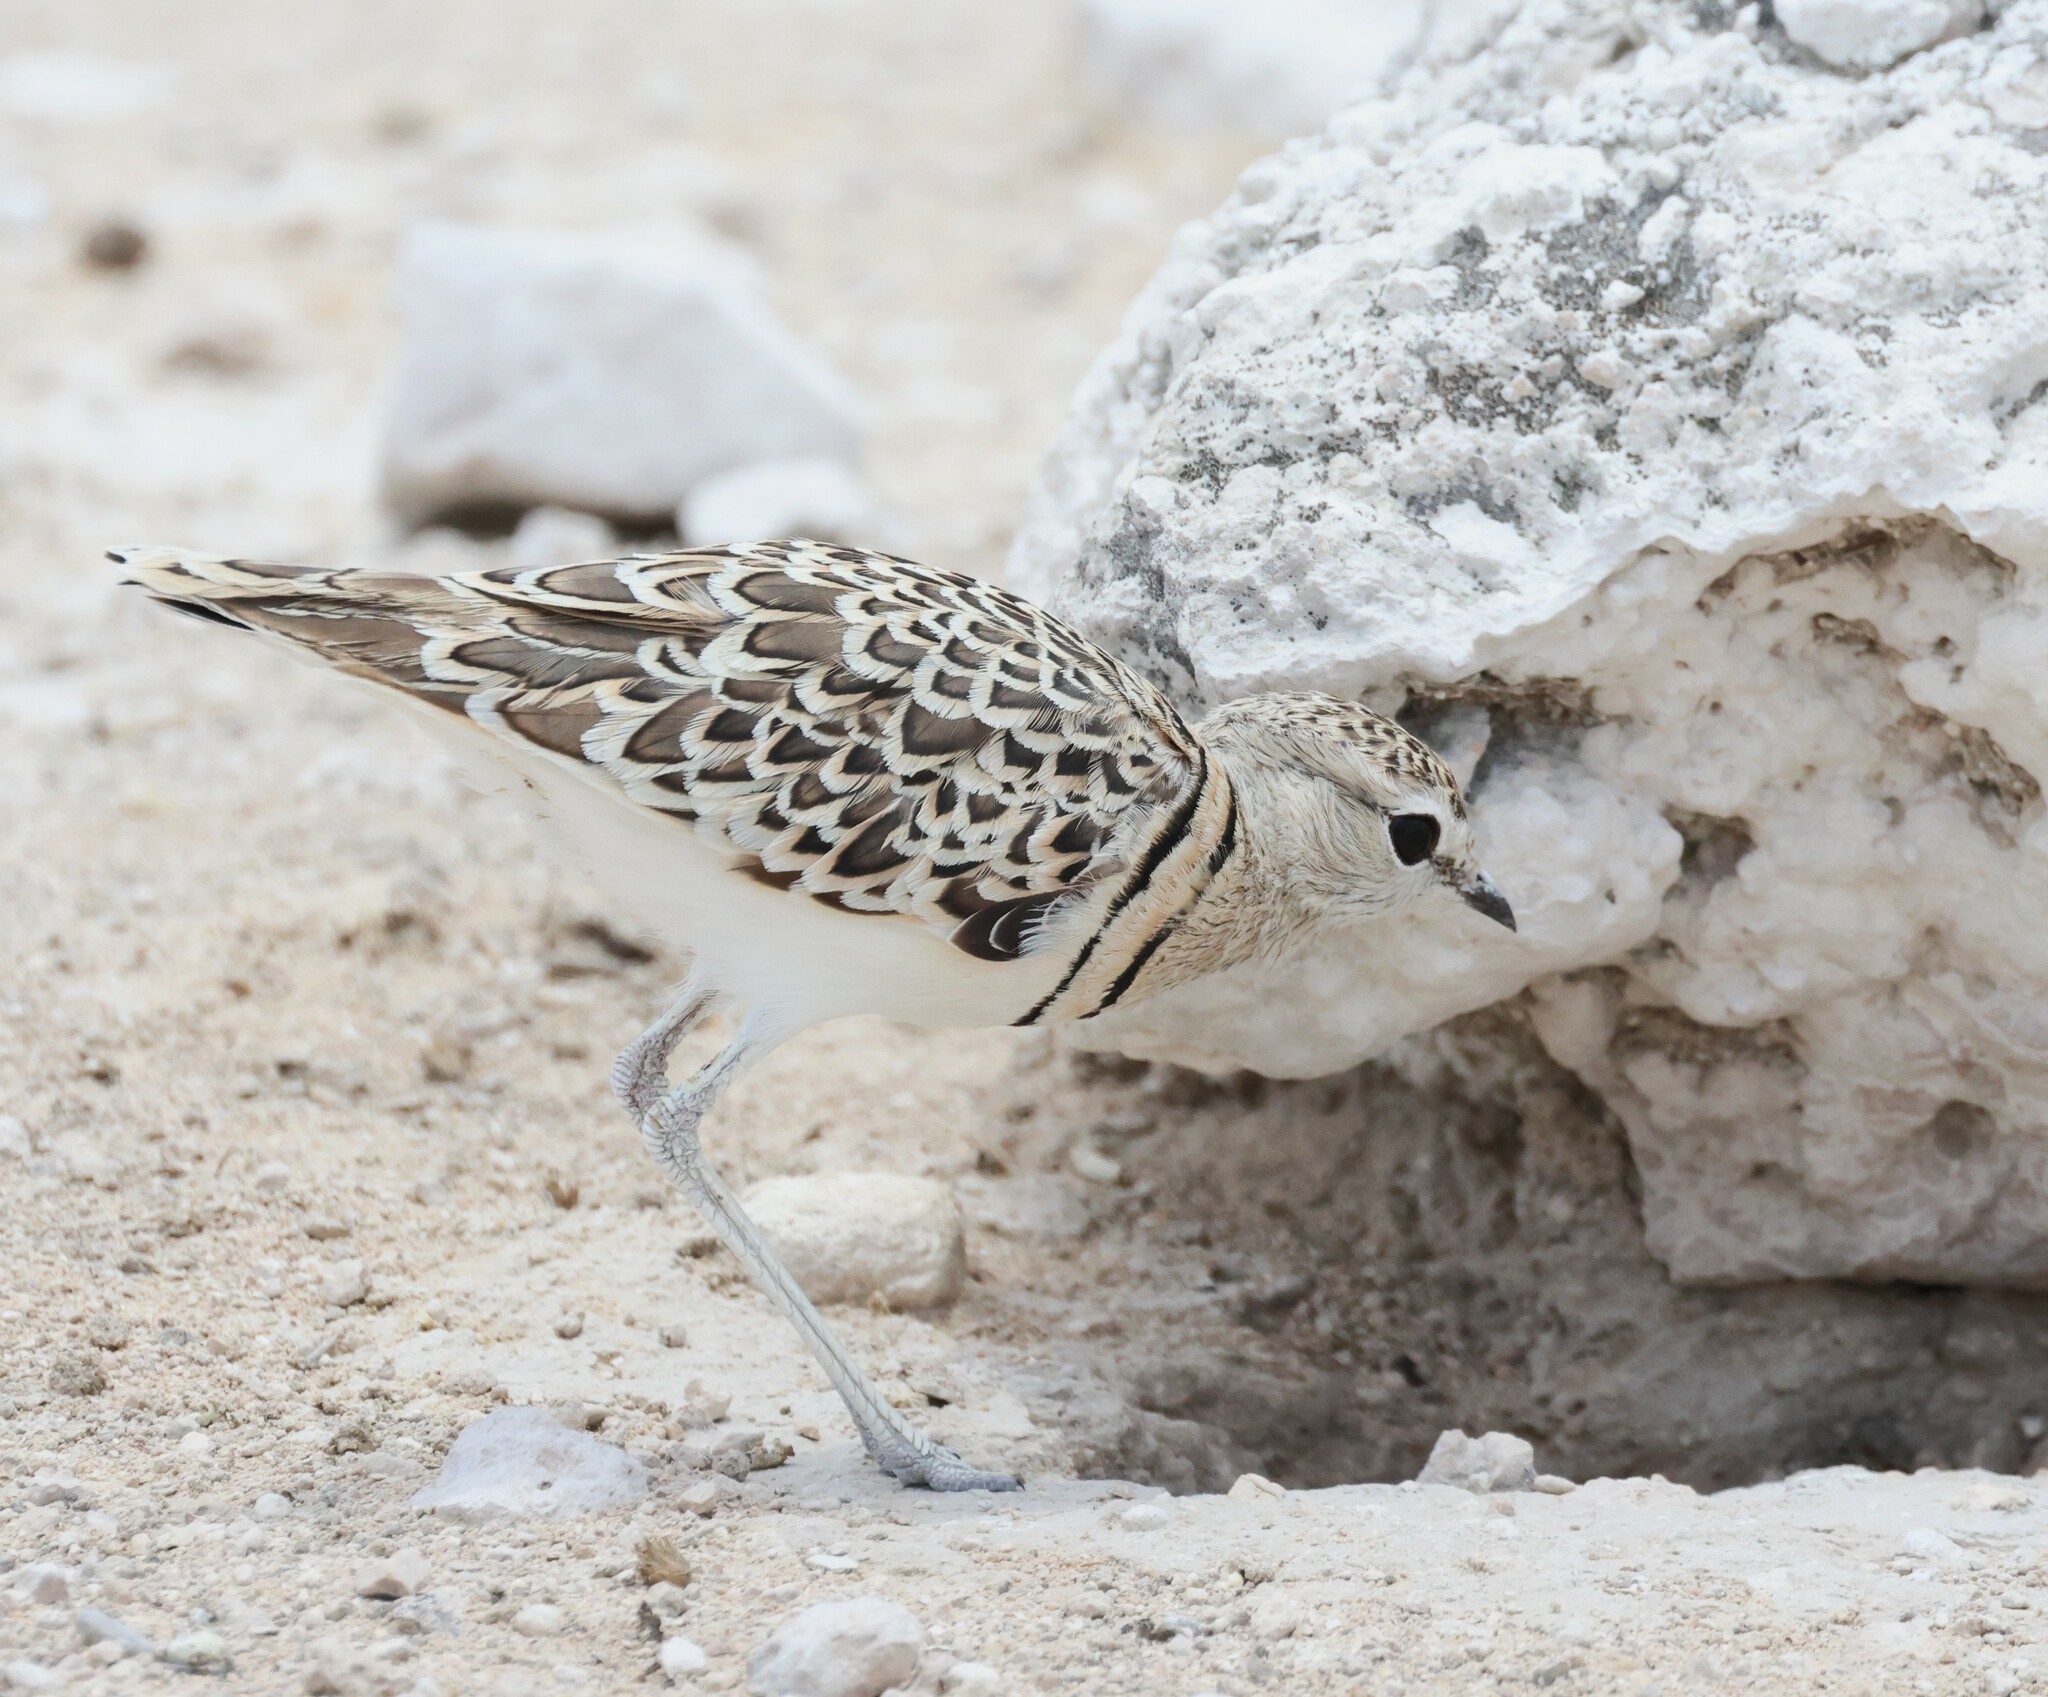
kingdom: Animalia
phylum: Chordata
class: Aves
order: Charadriiformes
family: Glareolidae
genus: Rhinoptilus
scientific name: Rhinoptilus africanus
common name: Double-banded courser
